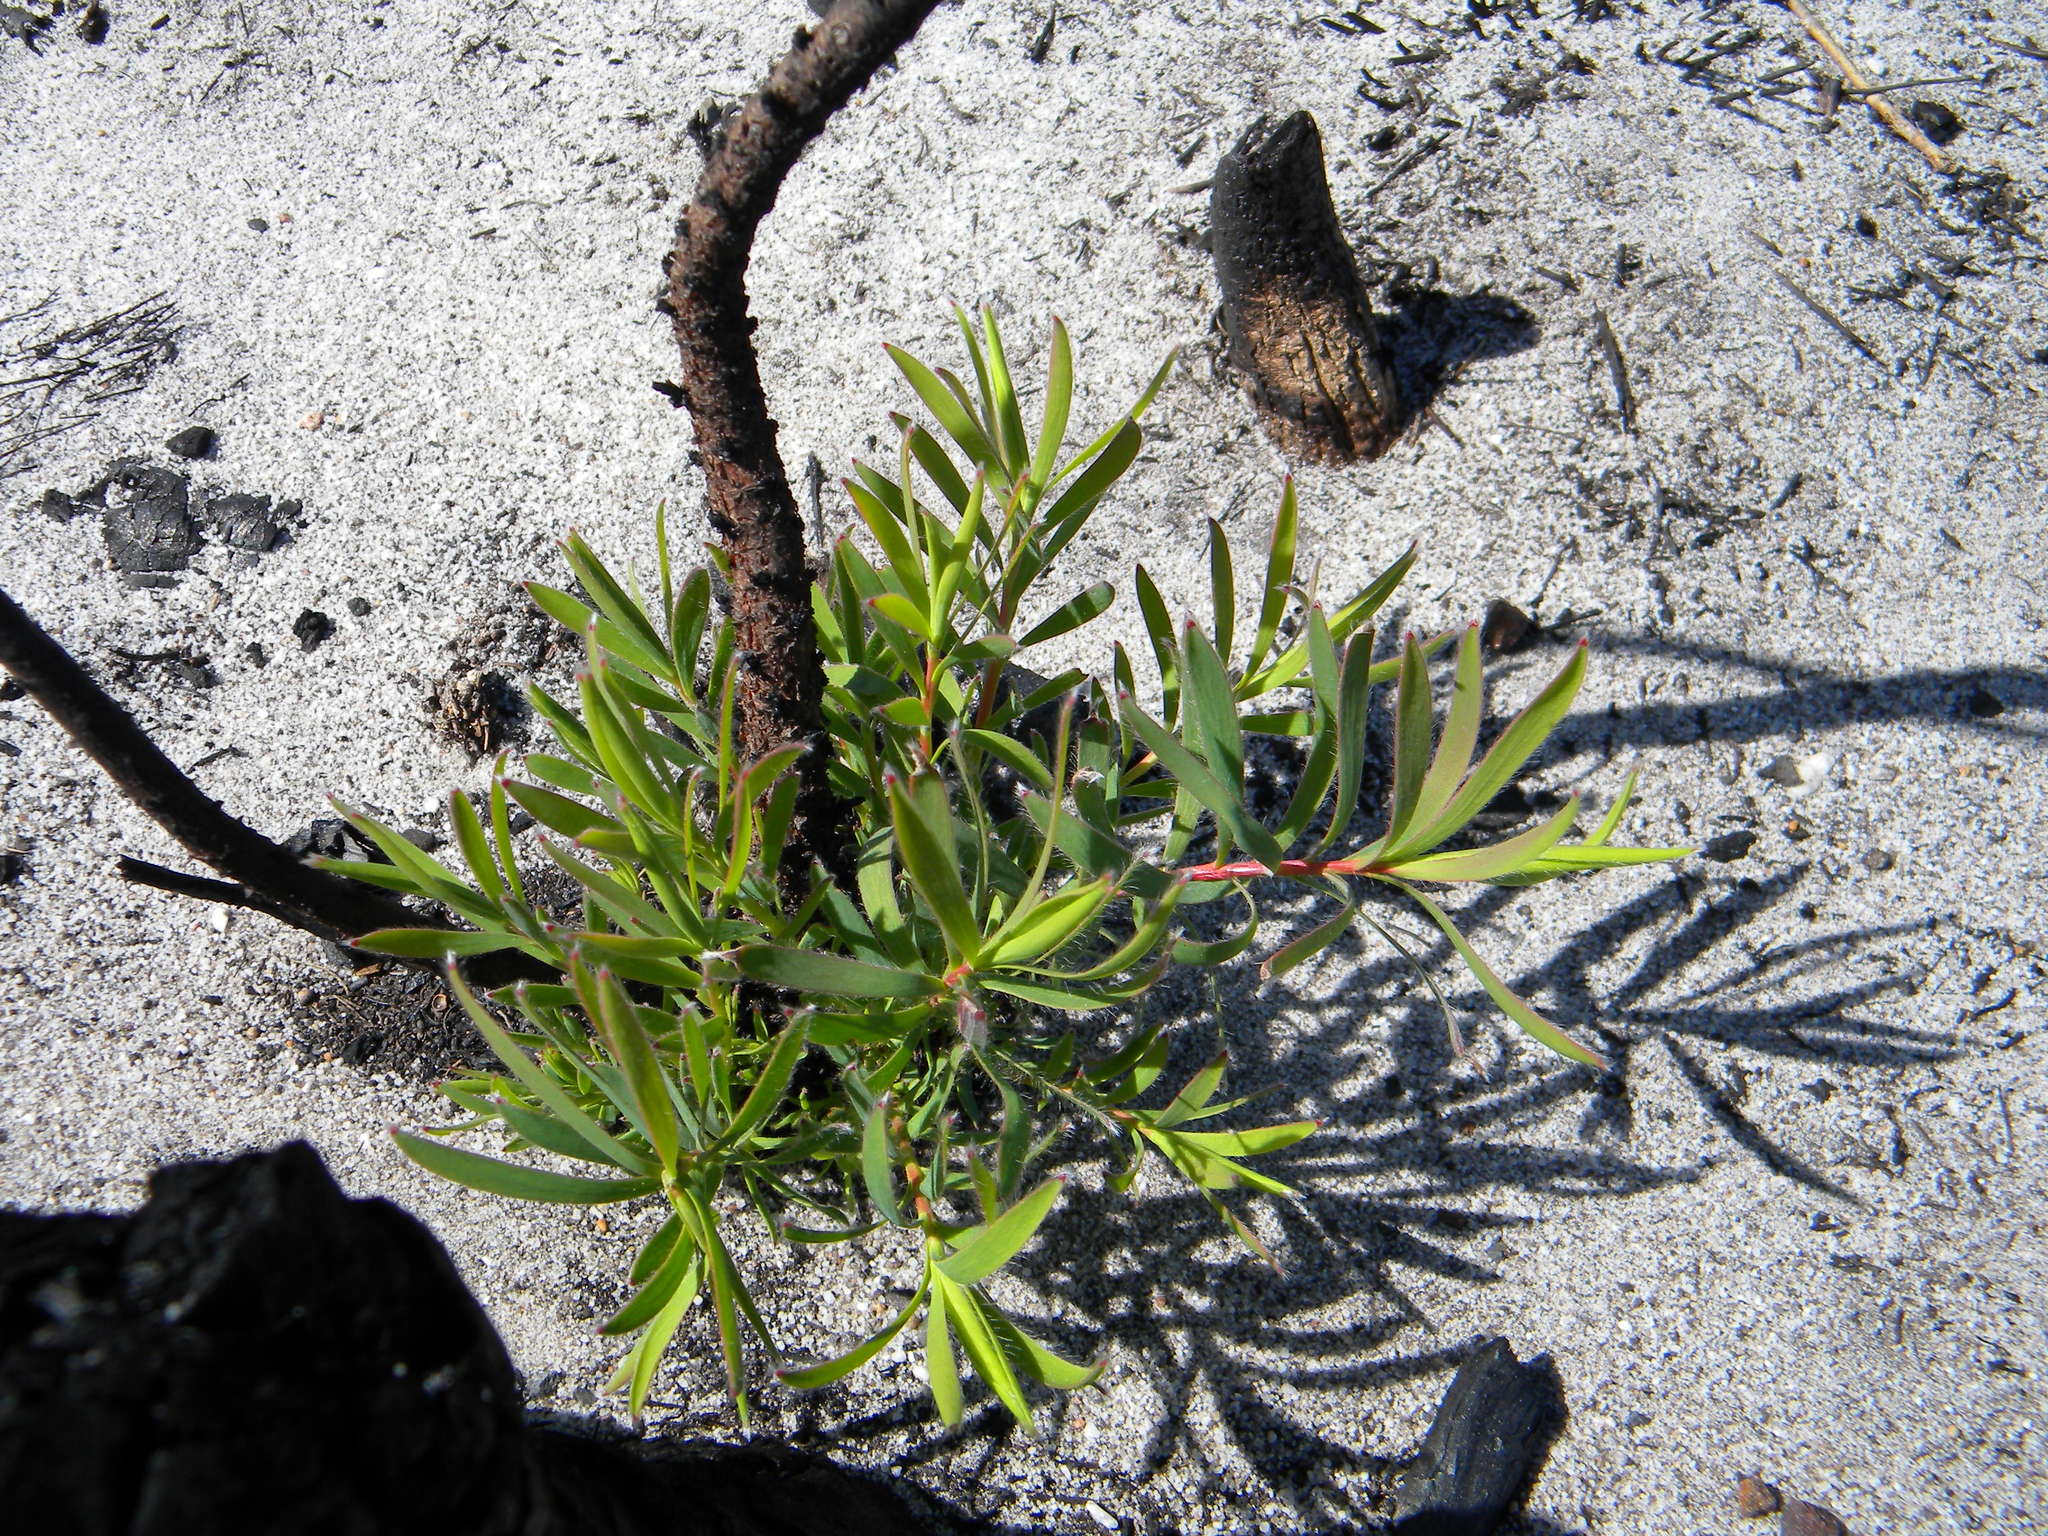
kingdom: Plantae
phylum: Tracheophyta
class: Magnoliopsida
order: Proteales
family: Proteaceae
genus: Leucadendron
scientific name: Leucadendron salignum
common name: Common sunshine conebush
